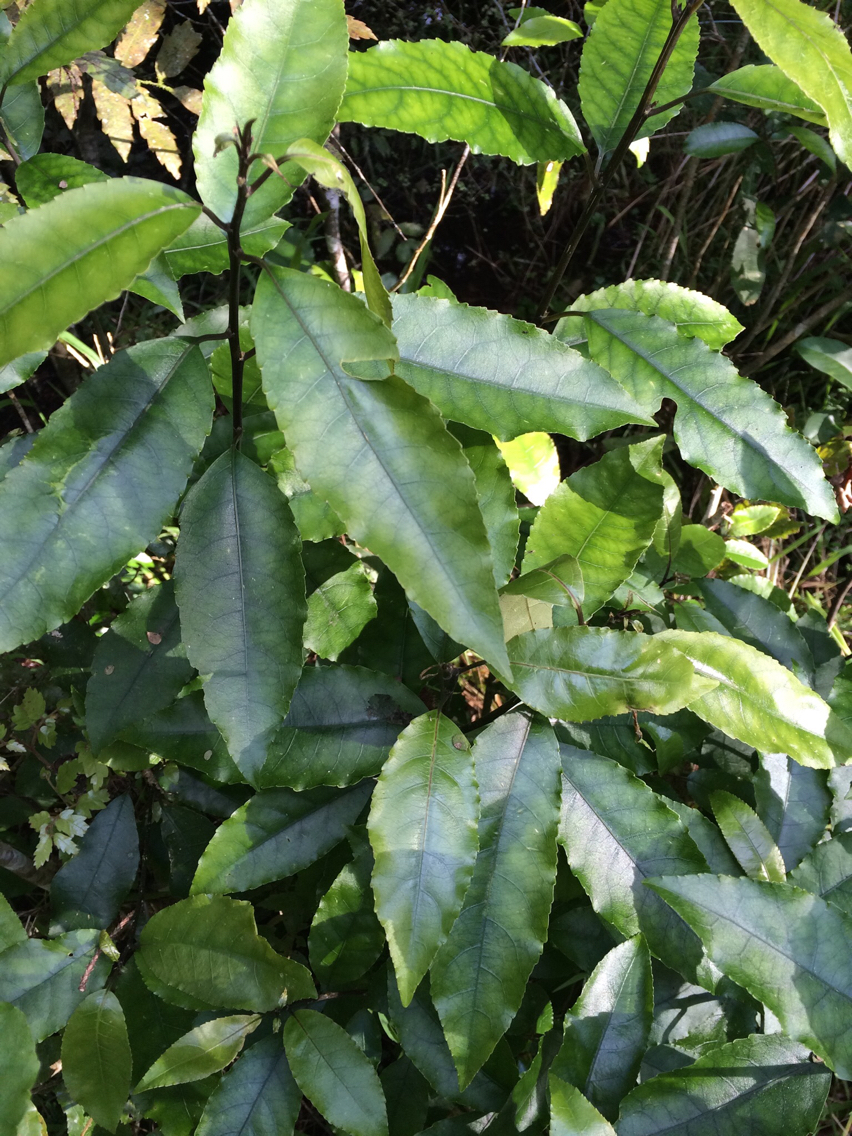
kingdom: Plantae
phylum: Tracheophyta
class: Magnoliopsida
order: Malpighiales
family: Violaceae
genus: Melicytus
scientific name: Melicytus ramiflorus
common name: Mahoe
